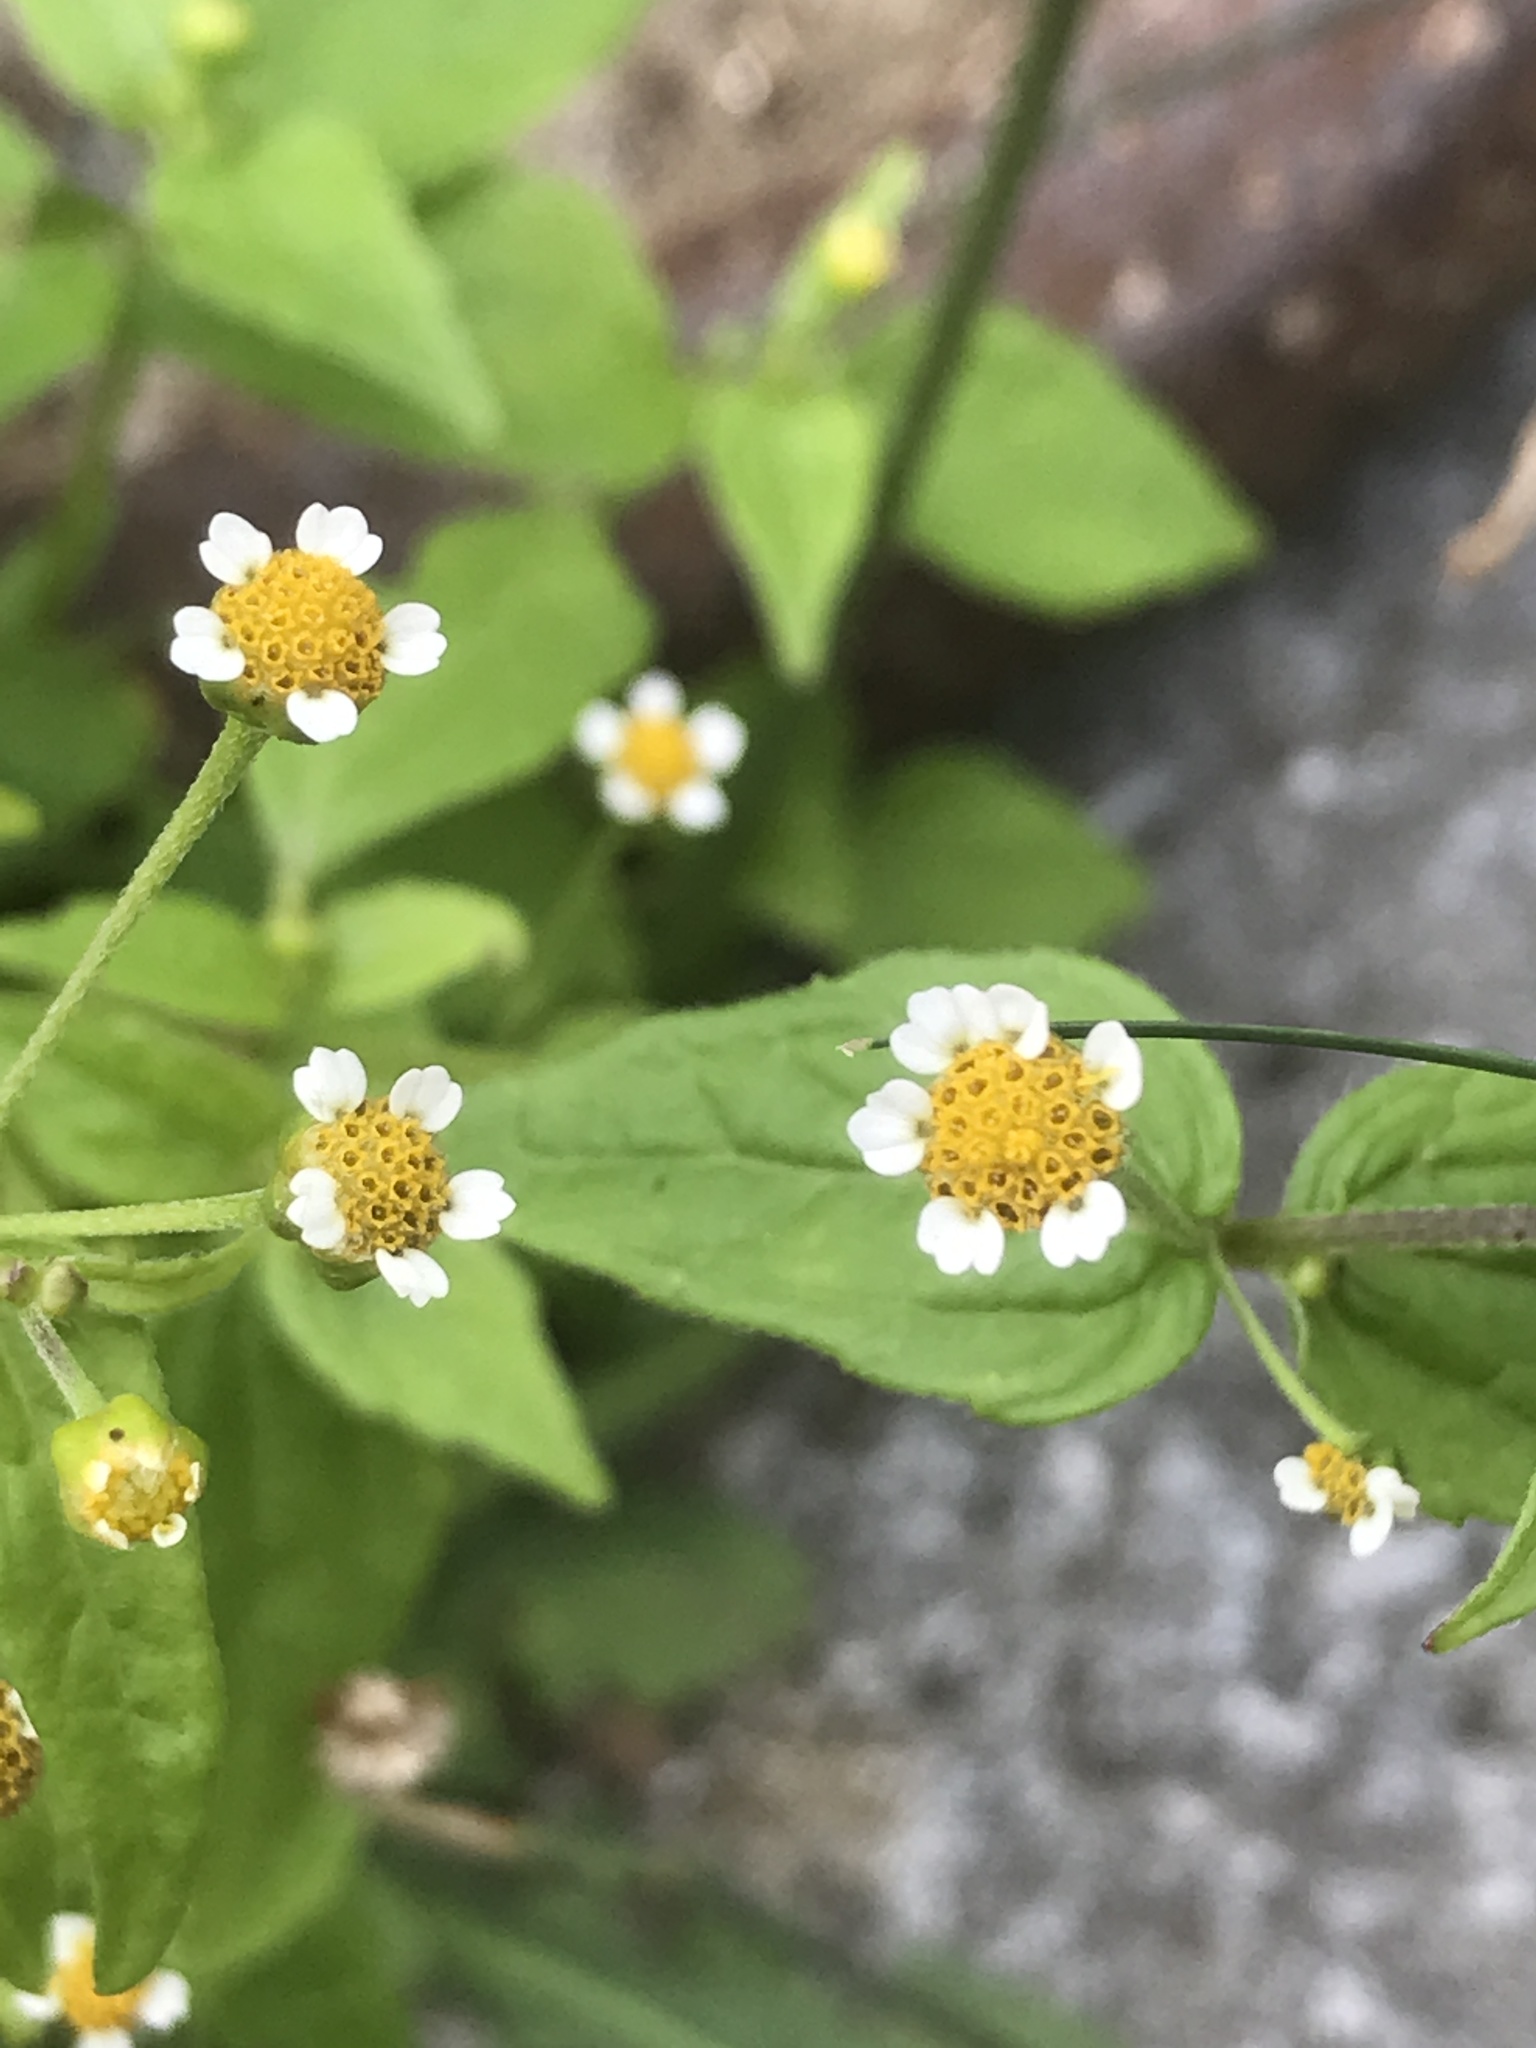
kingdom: Plantae
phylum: Tracheophyta
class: Magnoliopsida
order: Asterales
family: Asteraceae
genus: Galinsoga
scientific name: Galinsoga parviflora
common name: Gallant soldier
